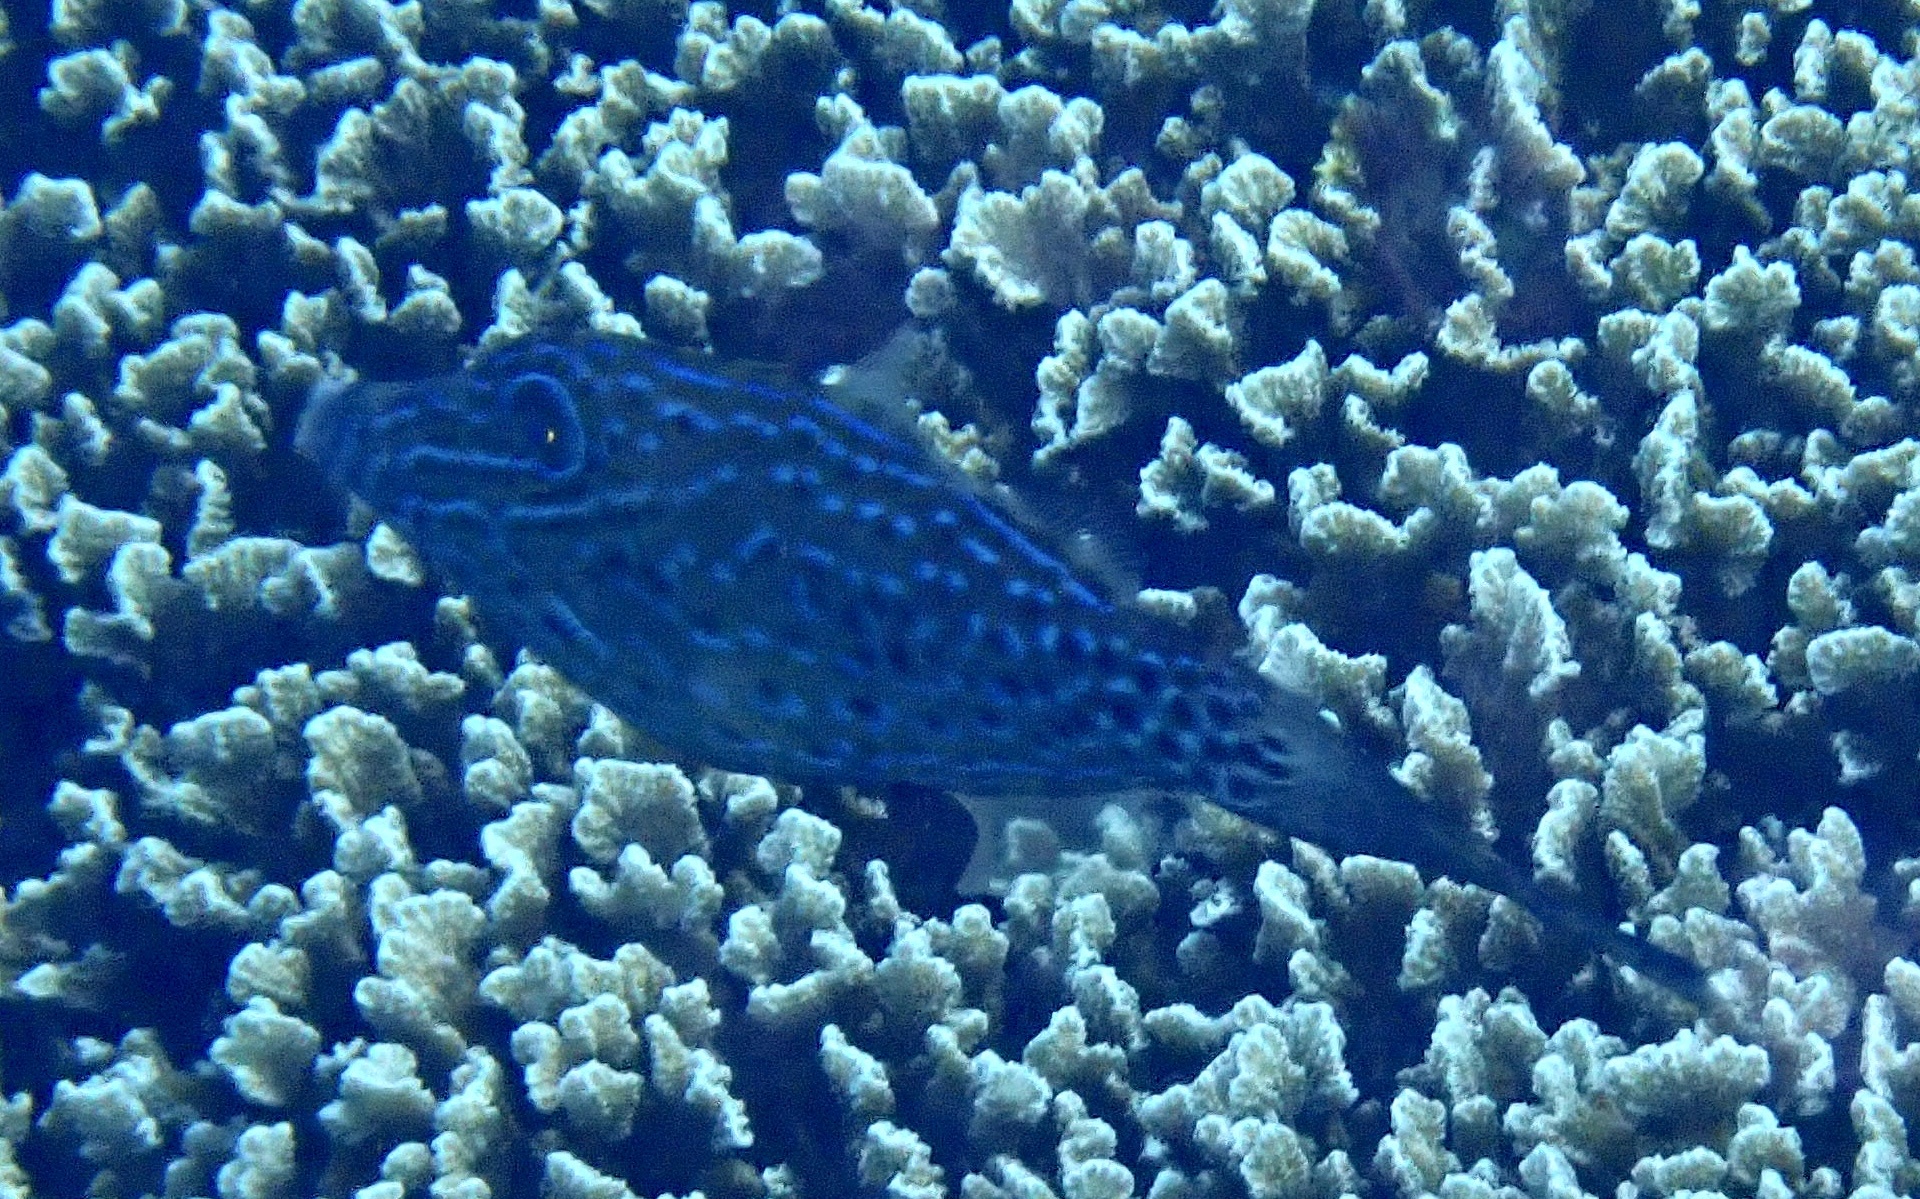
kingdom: Animalia
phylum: Chordata
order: Tetraodontiformes
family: Monacanthidae
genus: Aluterus
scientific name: Aluterus scriptus
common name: Scribbled leatherjacket filefish
